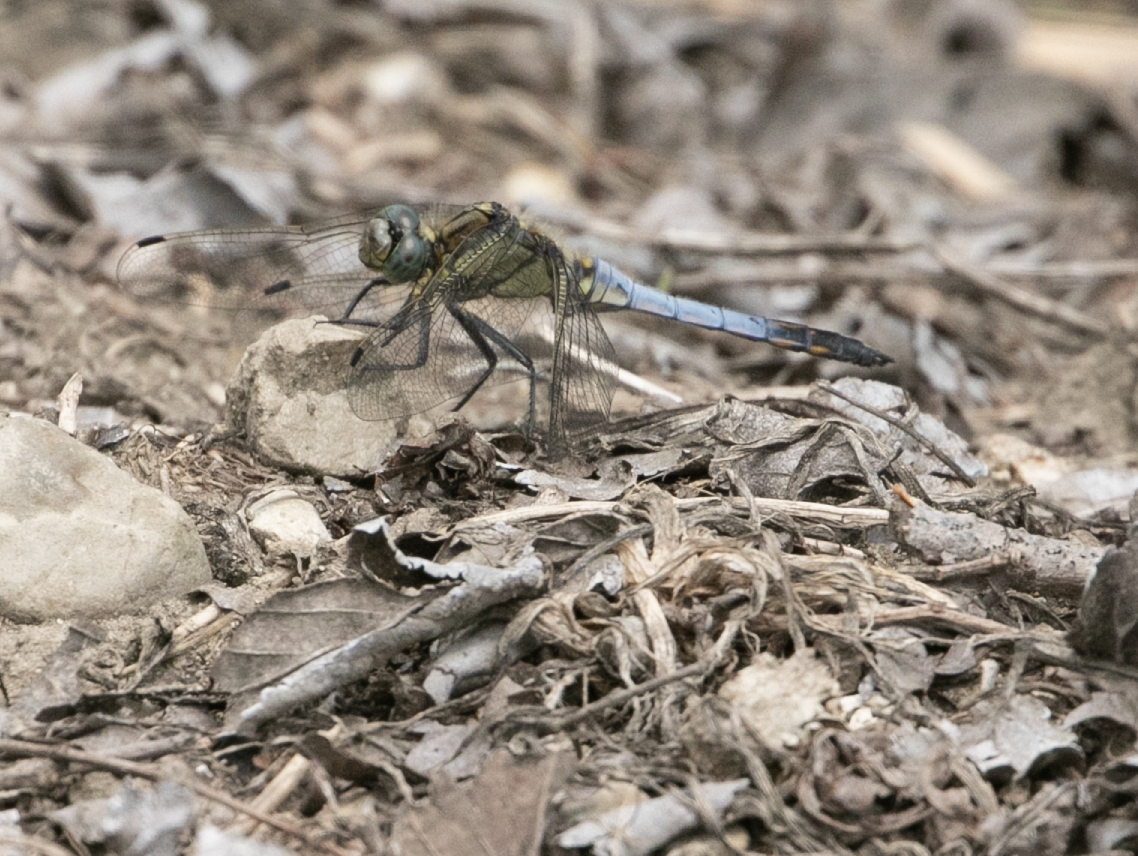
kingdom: Animalia
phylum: Arthropoda
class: Insecta
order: Odonata
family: Libellulidae
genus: Orthetrum
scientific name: Orthetrum cancellatum
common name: Black-tailed skimmer
